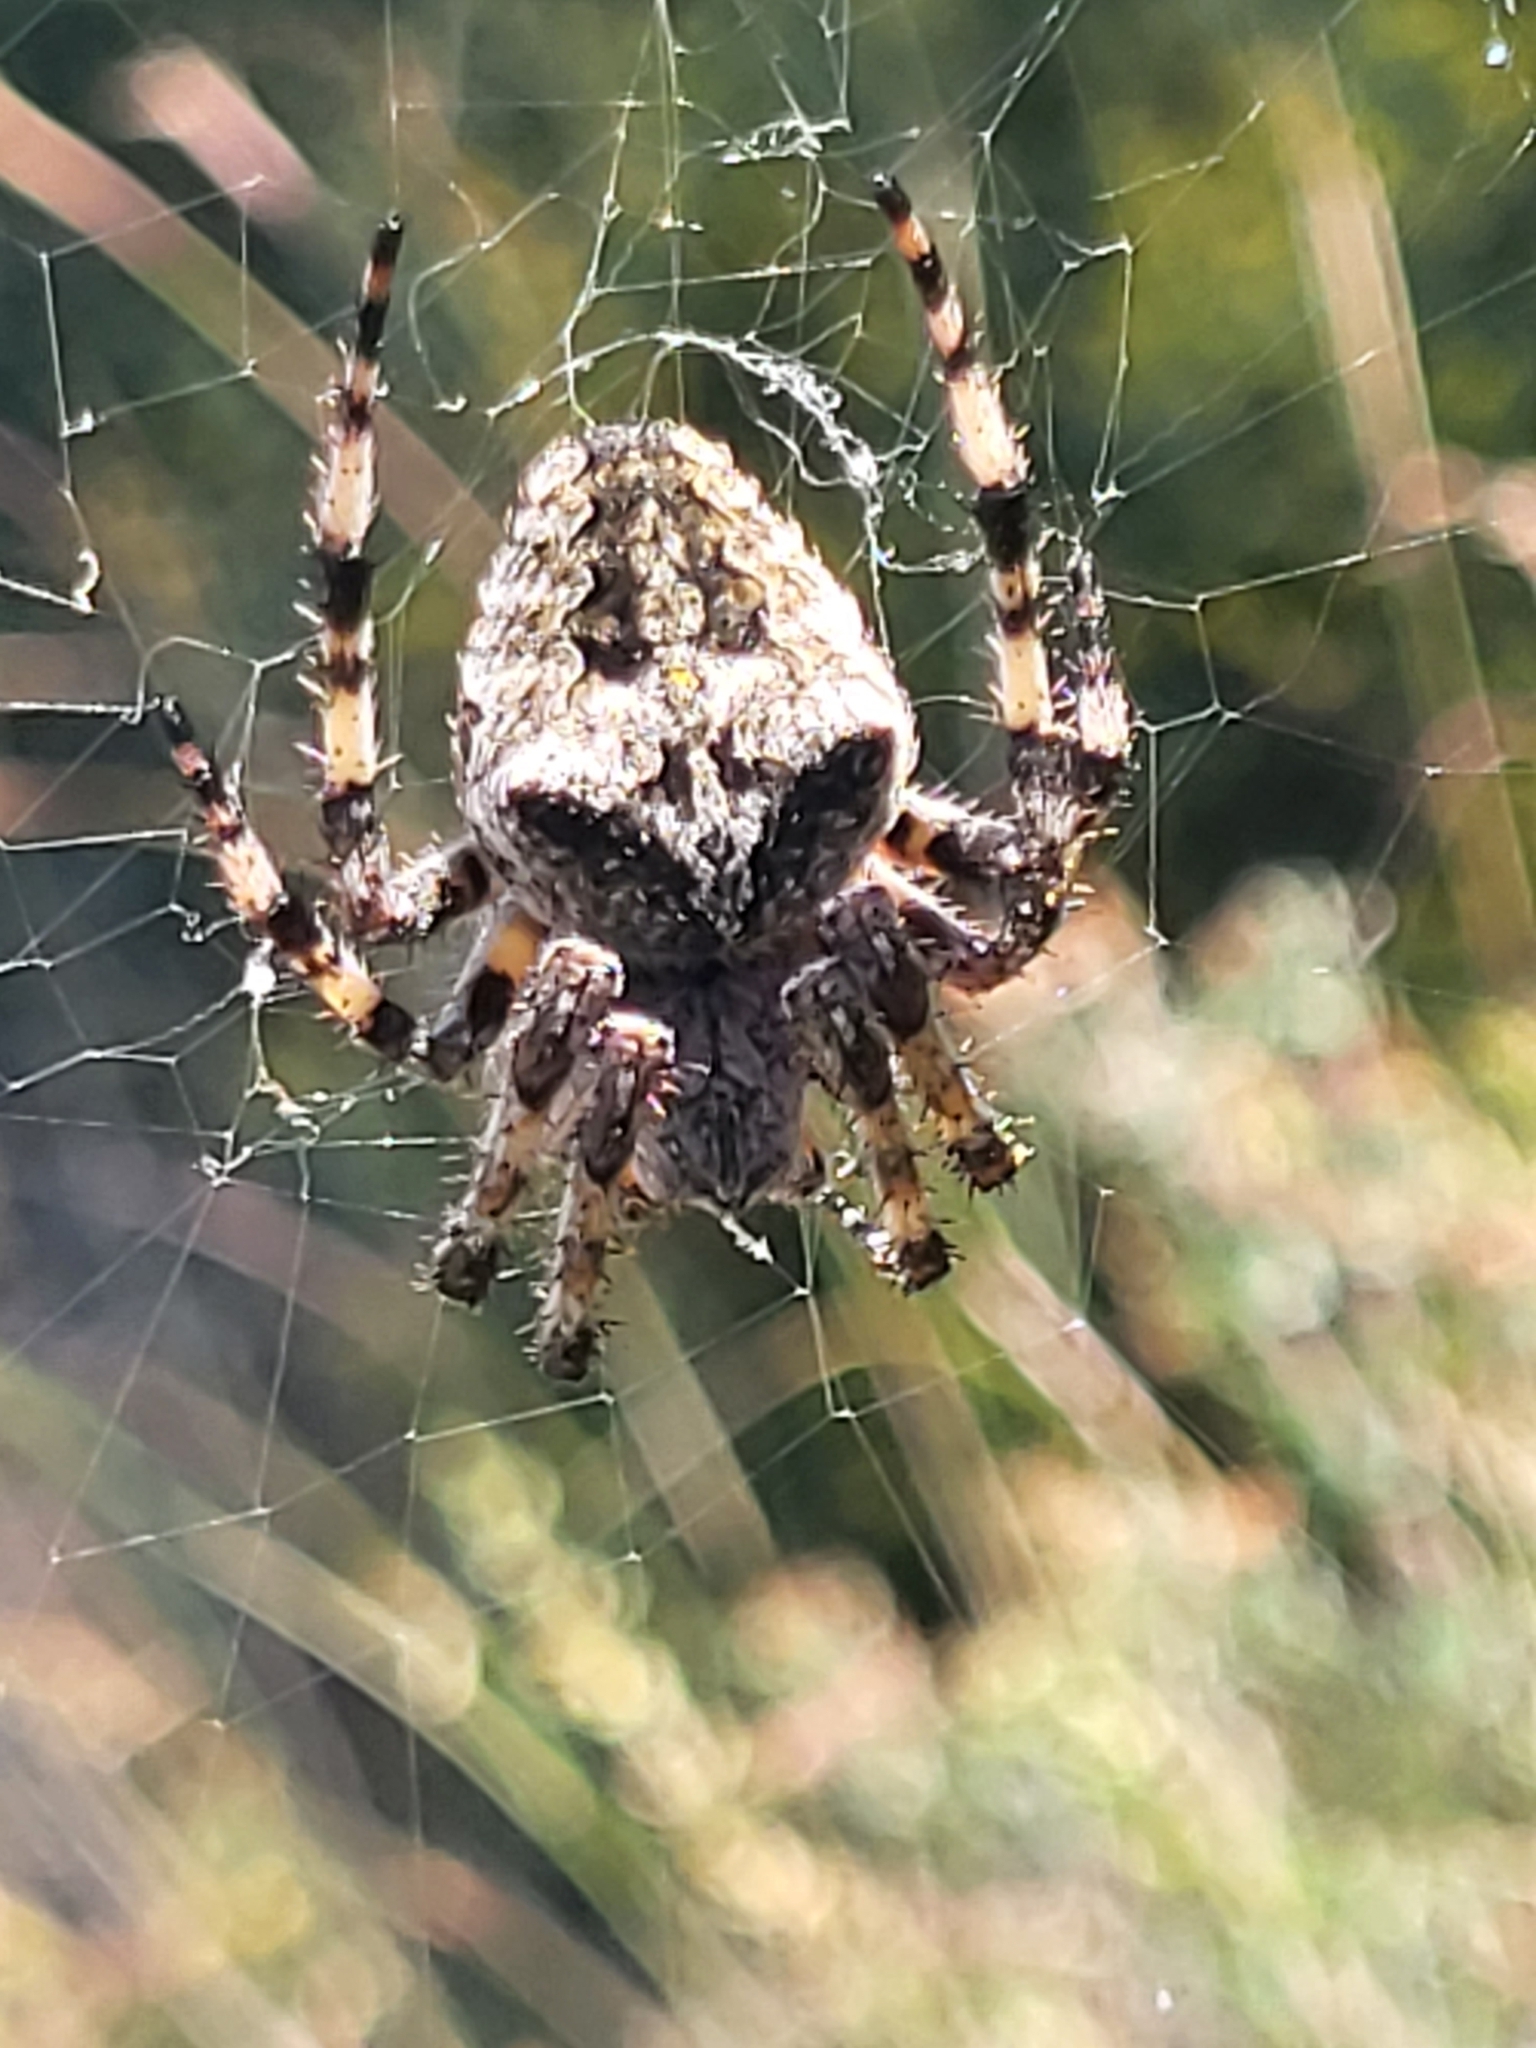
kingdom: Animalia
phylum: Arthropoda
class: Arachnida
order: Araneae
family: Araneidae
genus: Araneus
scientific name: Araneus circe
